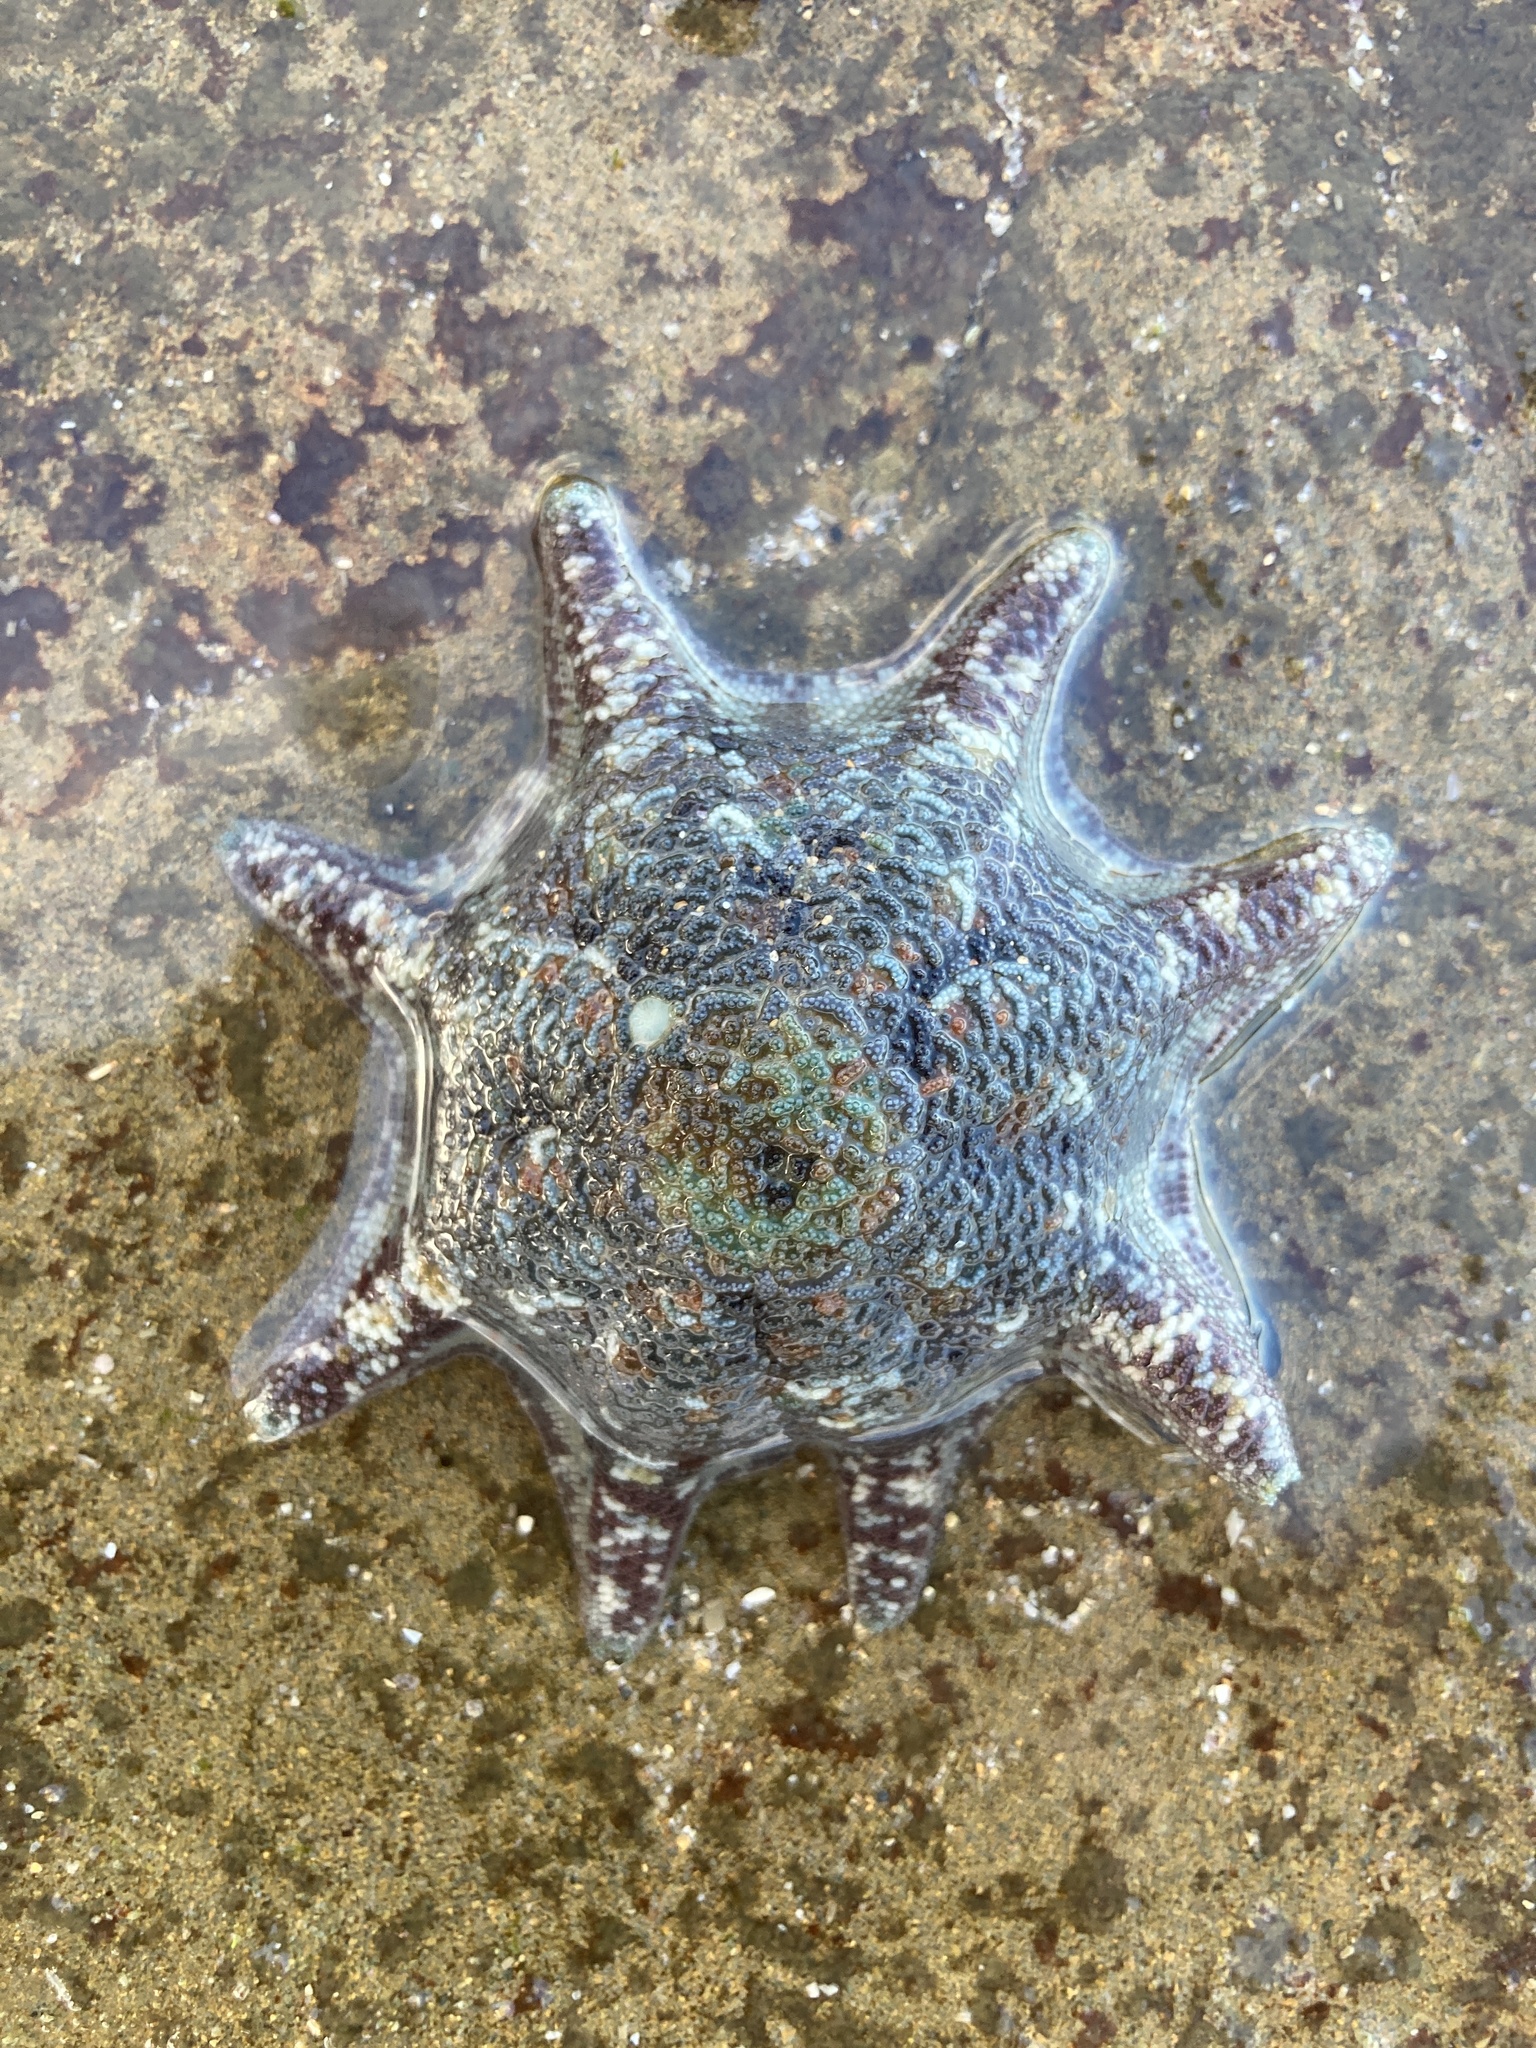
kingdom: Animalia
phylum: Echinodermata
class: Asteroidea
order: Valvatida
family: Asterinidae
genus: Meridiastra
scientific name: Meridiastra calcar
